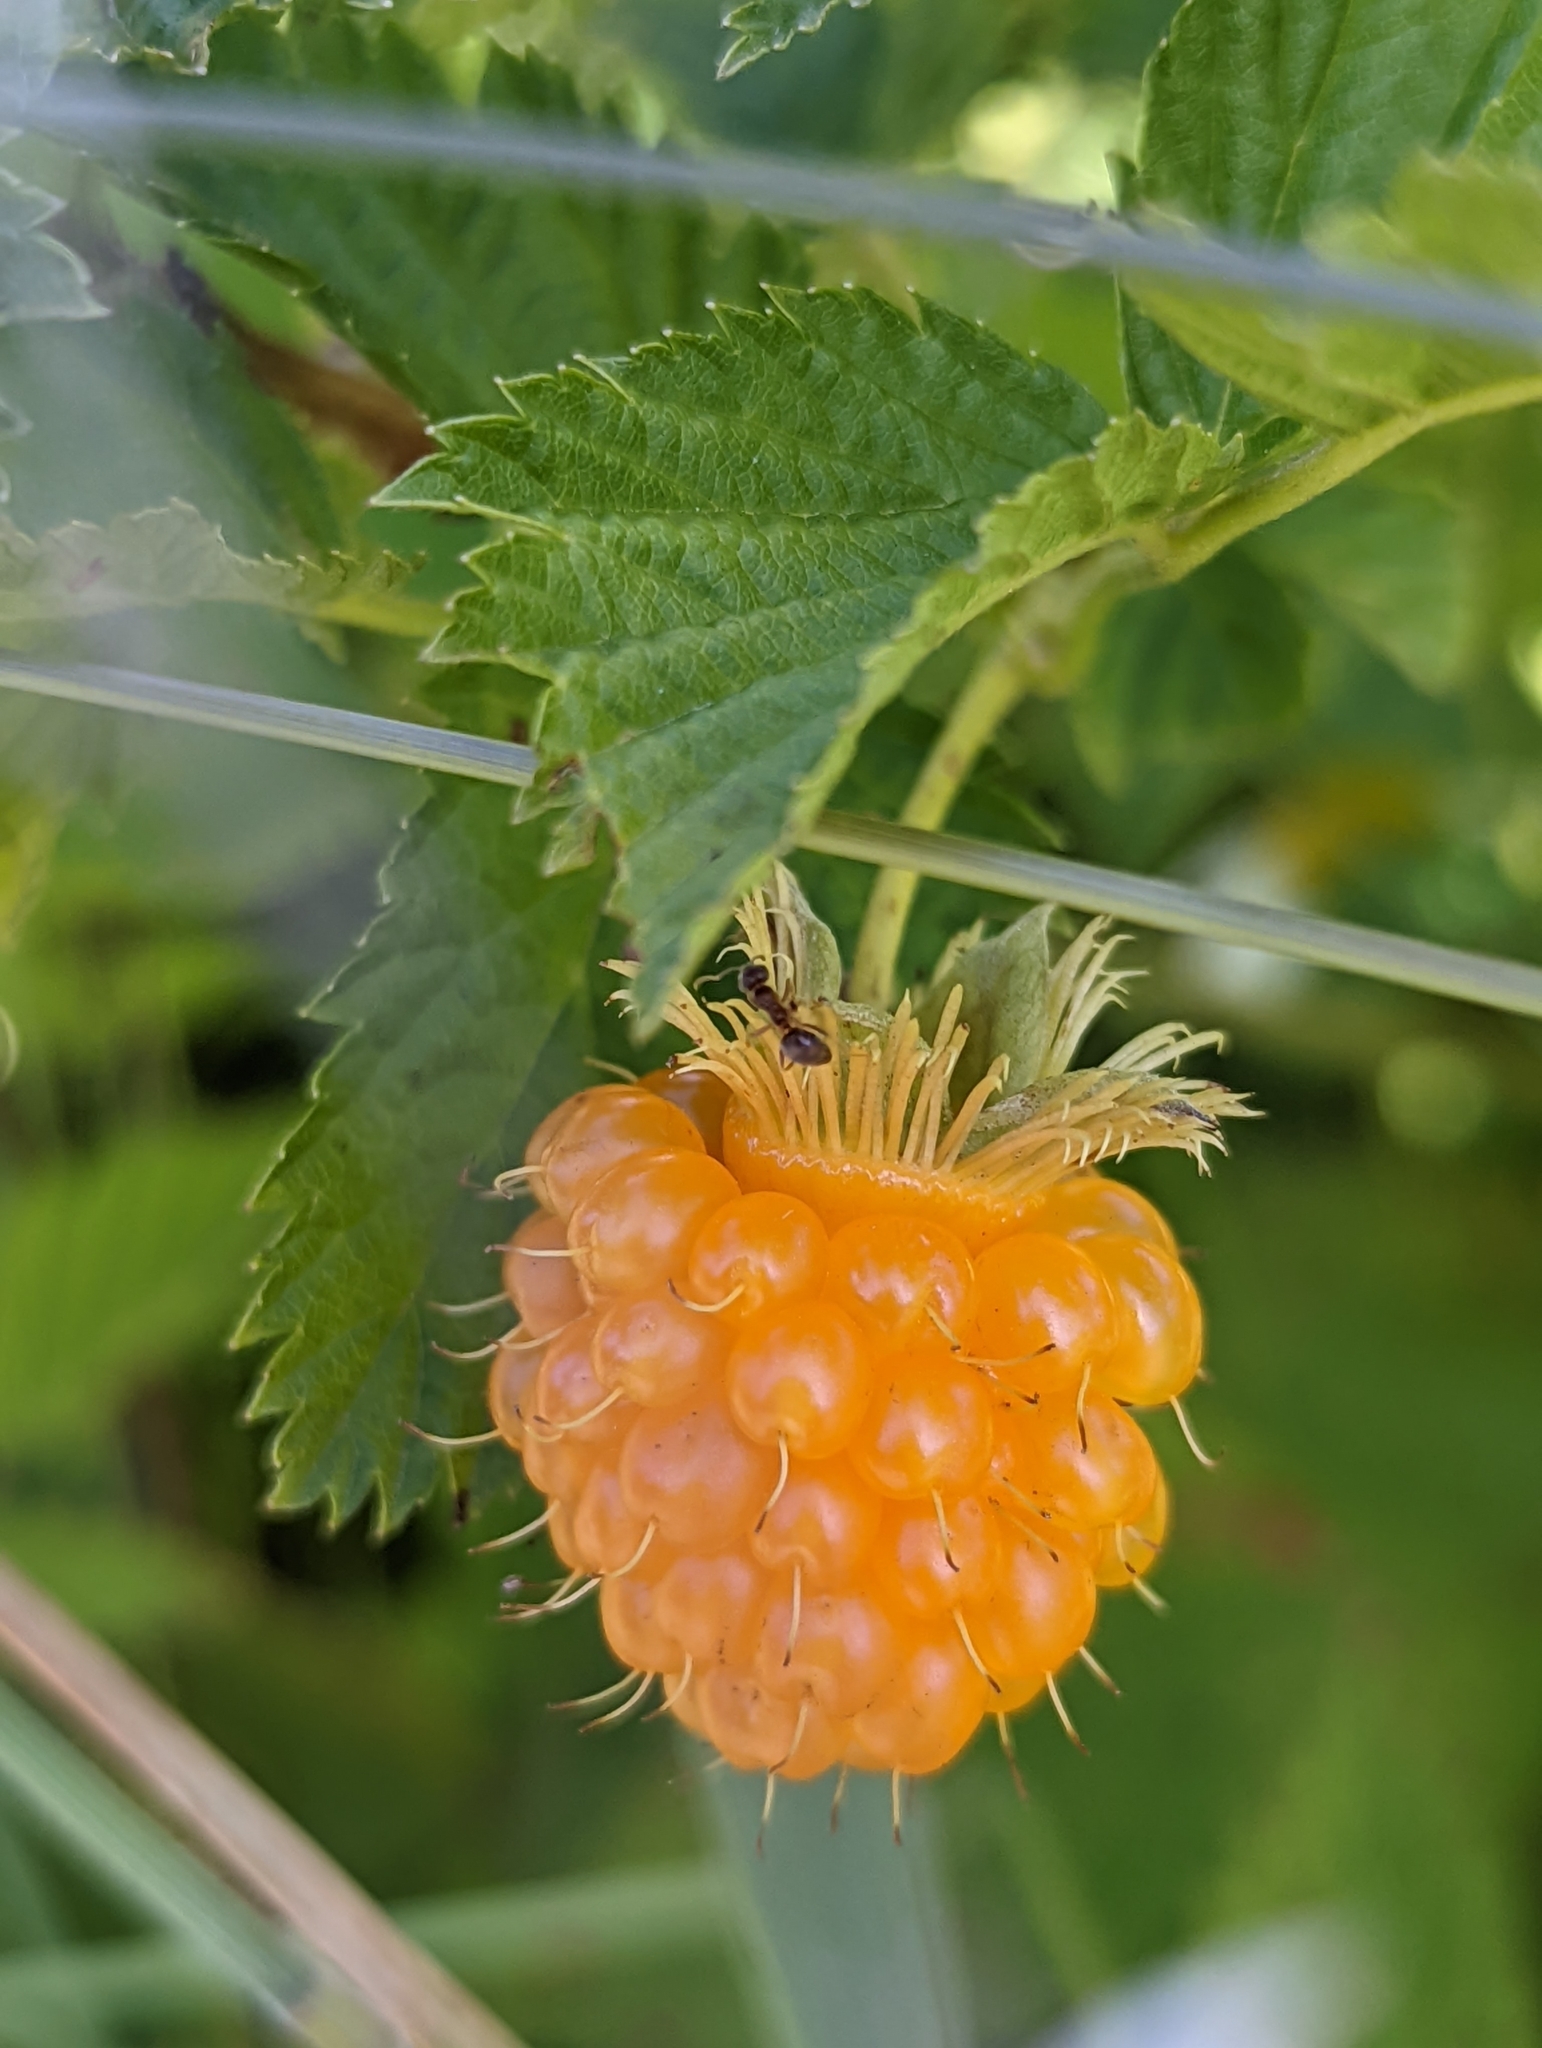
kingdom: Plantae
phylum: Tracheophyta
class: Magnoliopsida
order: Rosales
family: Rosaceae
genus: Rubus
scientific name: Rubus spectabilis
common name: Salmonberry
